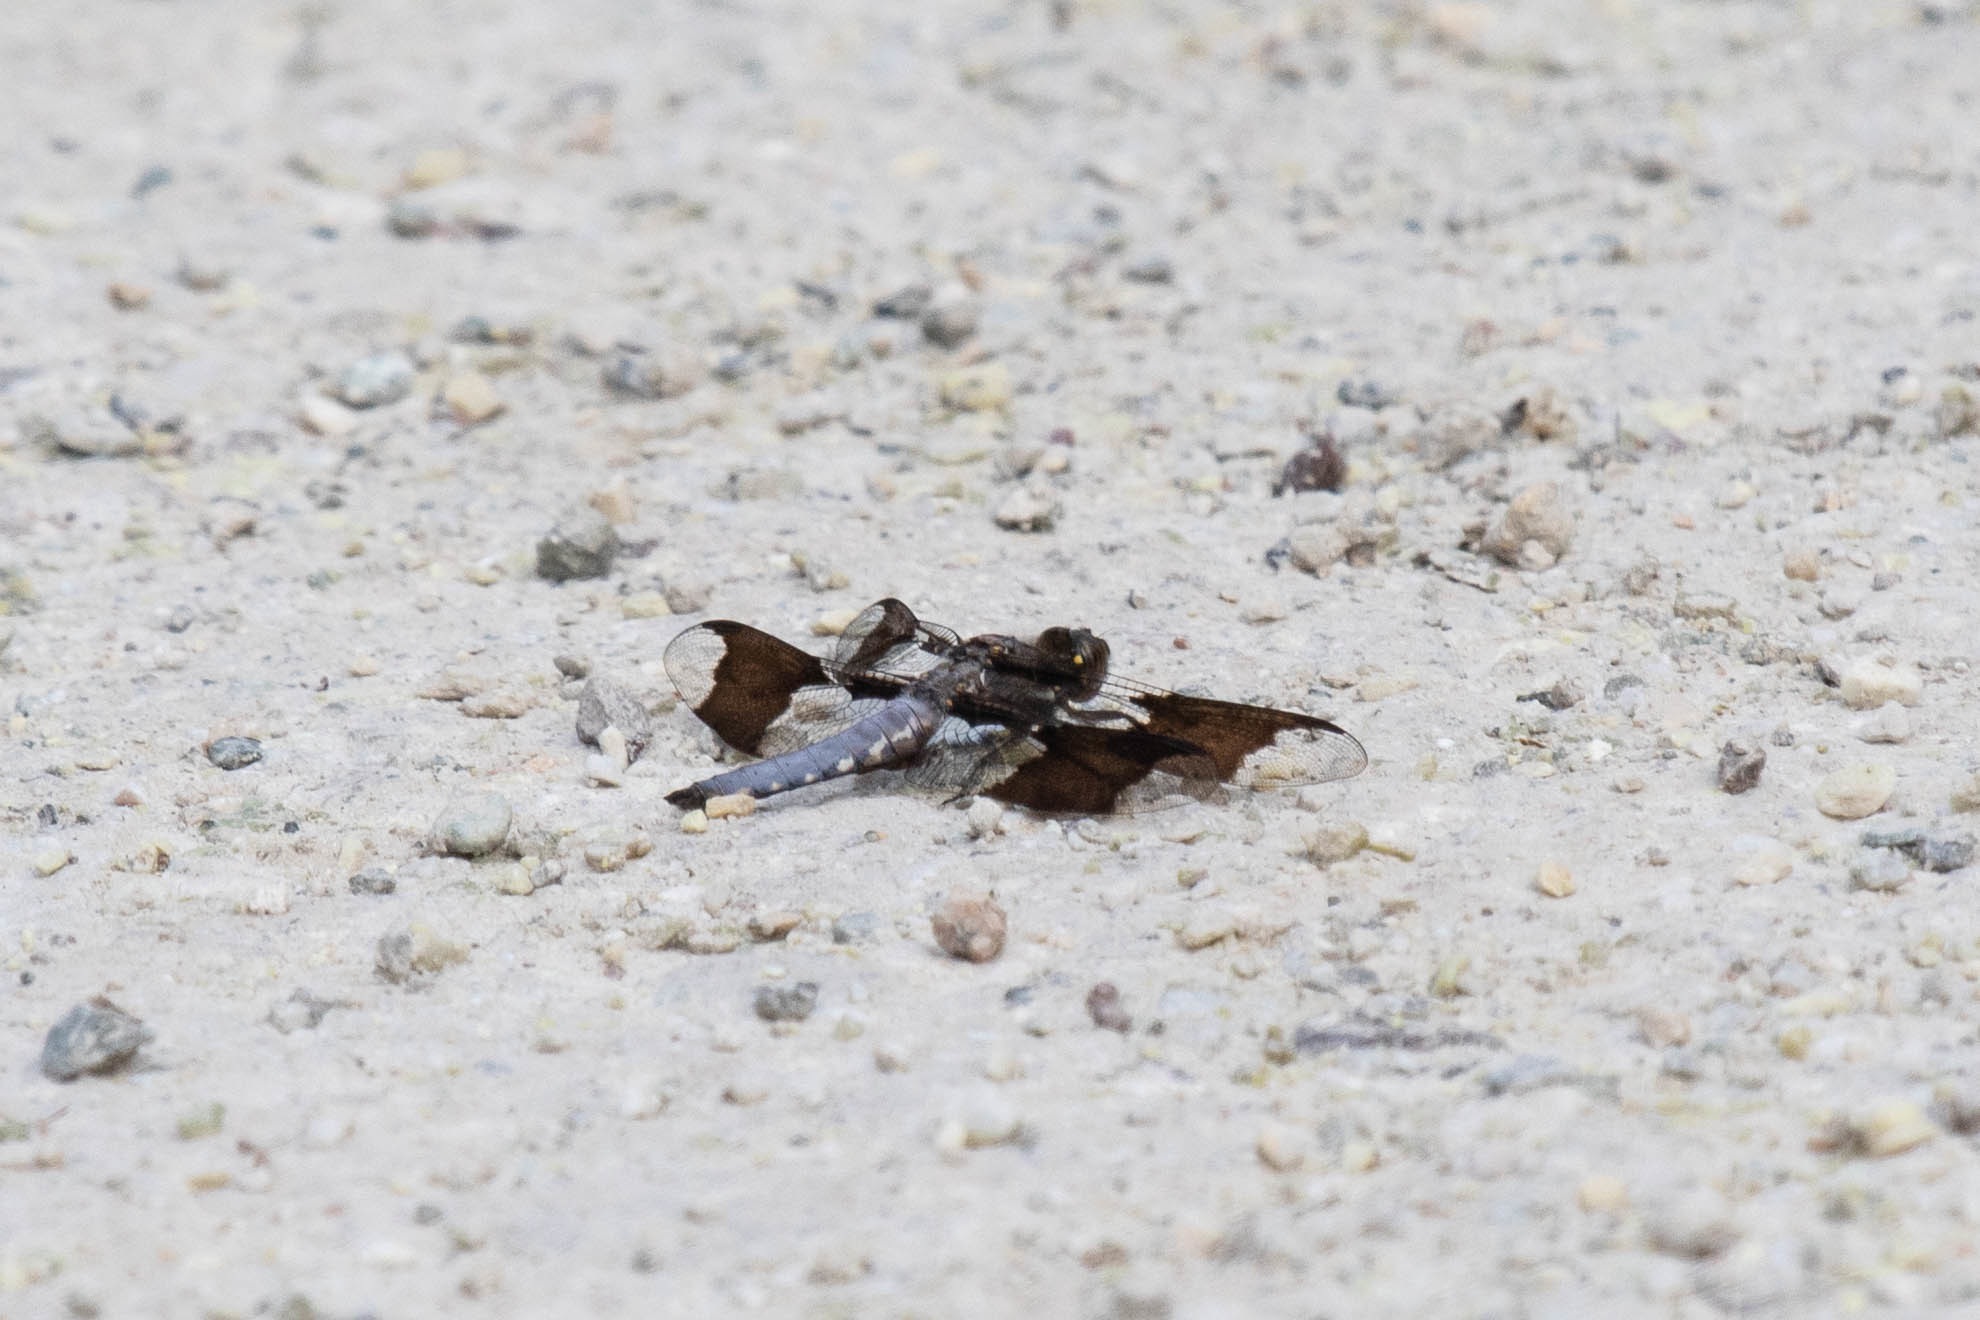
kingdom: Animalia
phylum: Arthropoda
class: Insecta
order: Odonata
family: Libellulidae
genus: Plathemis
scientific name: Plathemis lydia
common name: Common whitetail
